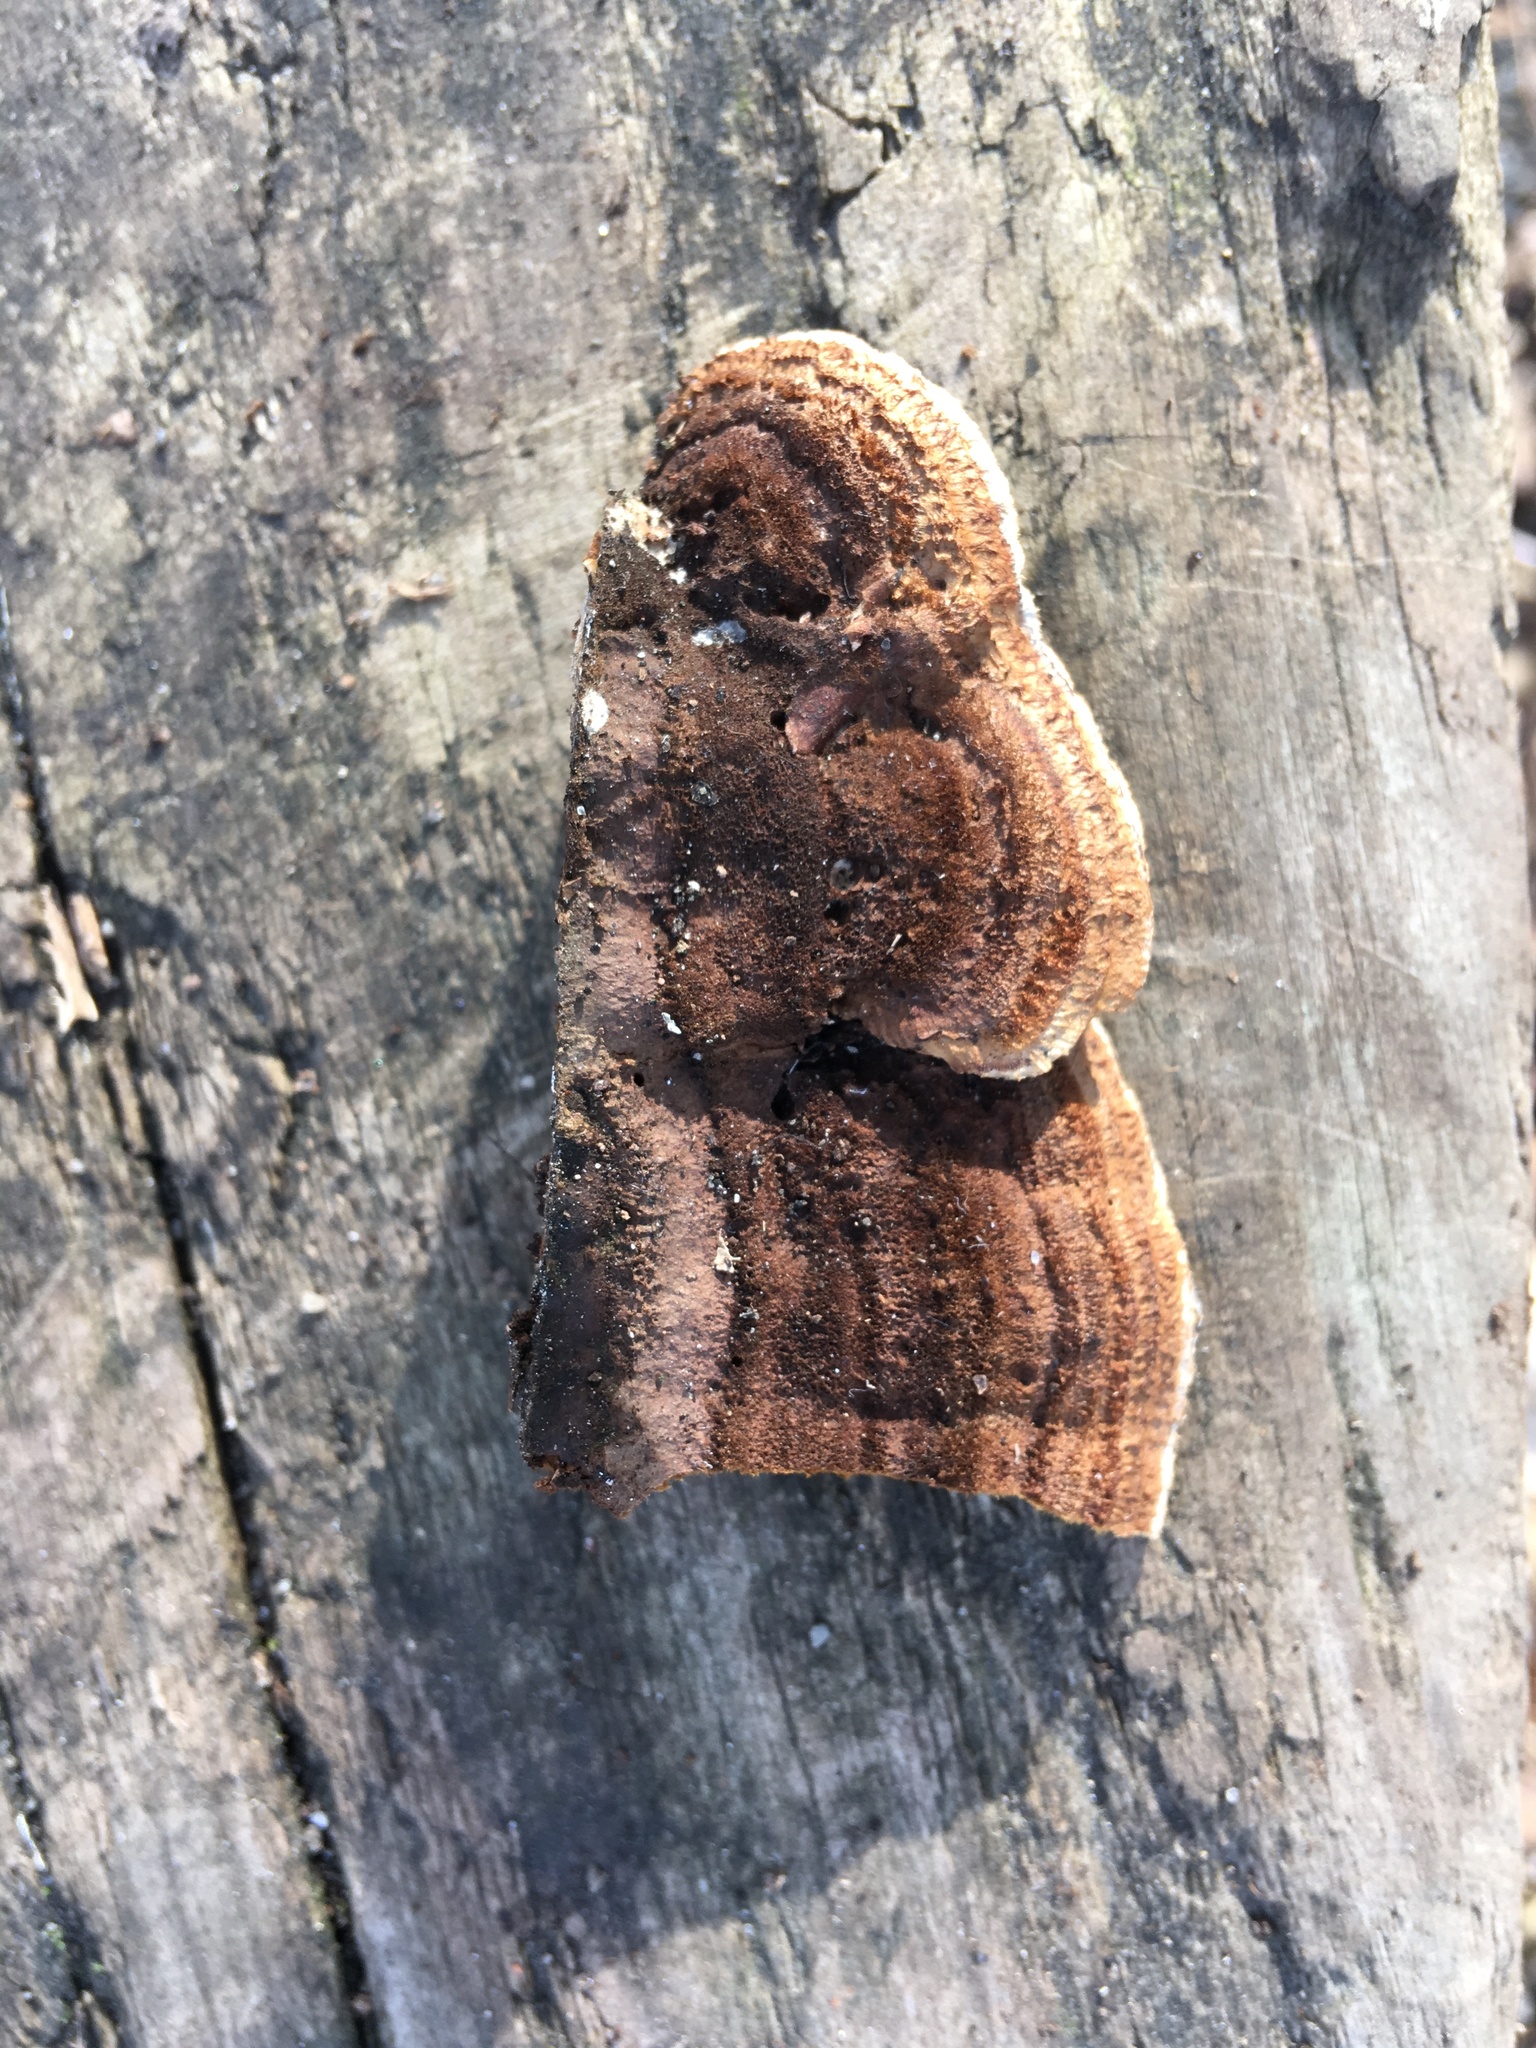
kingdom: Fungi
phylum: Basidiomycota
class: Agaricomycetes
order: Gloeophyllales
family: Gloeophyllaceae
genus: Gloeophyllum
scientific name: Gloeophyllum sepiarium
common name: Conifer mazegill
